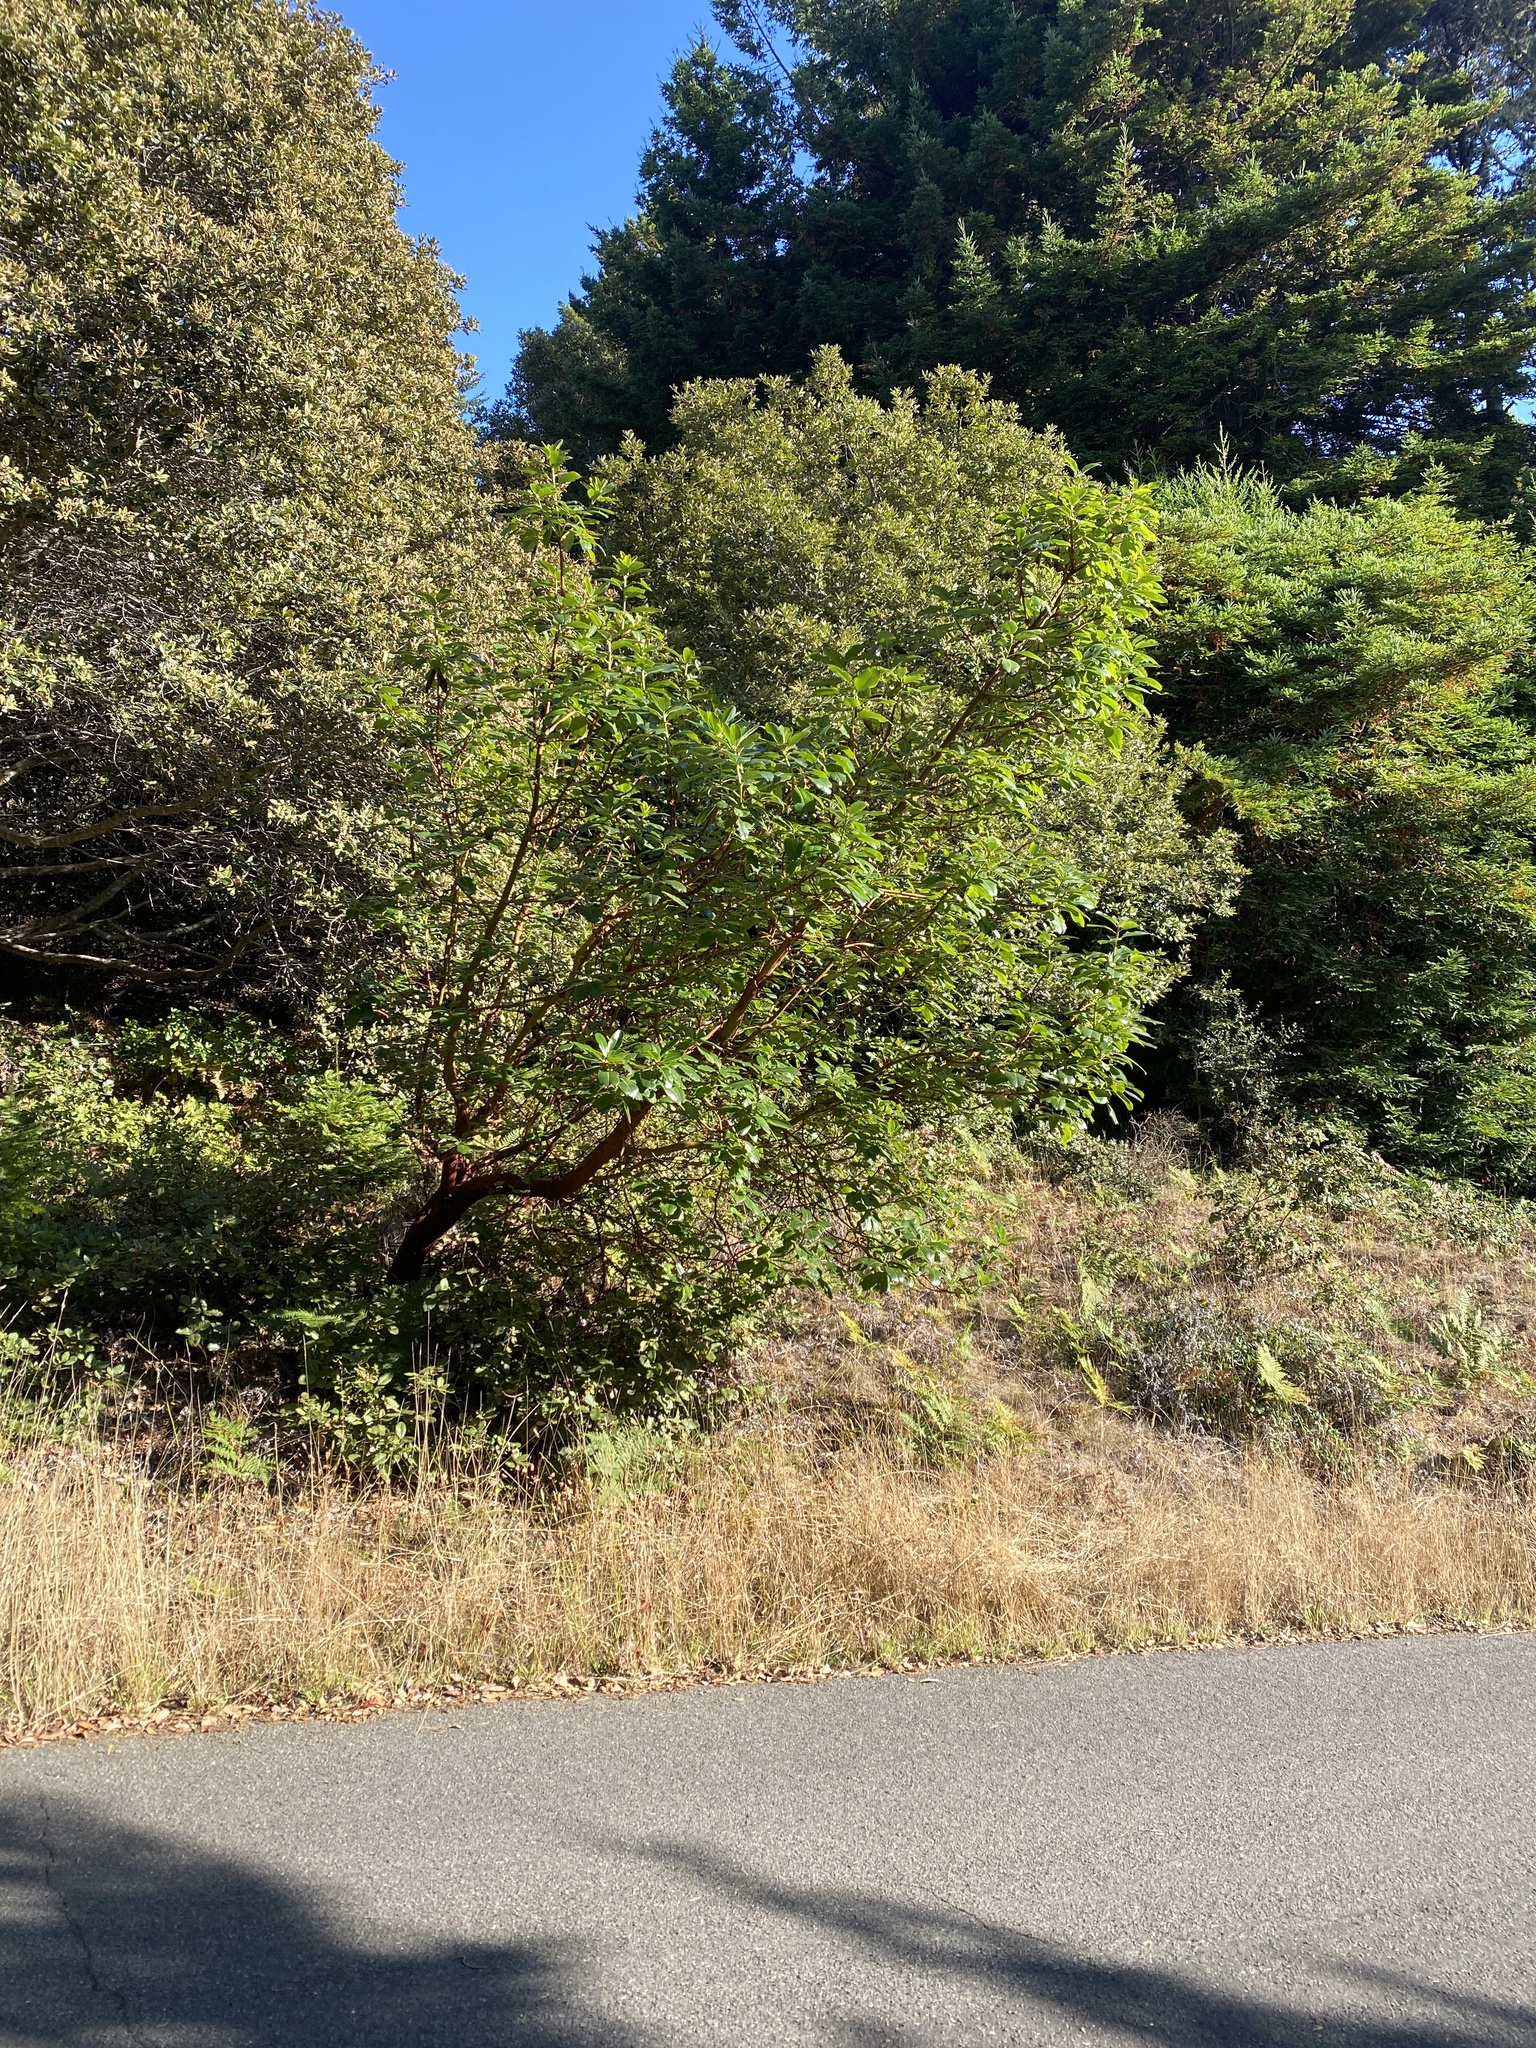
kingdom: Plantae
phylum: Tracheophyta
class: Magnoliopsida
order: Ericales
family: Ericaceae
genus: Arbutus
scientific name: Arbutus menziesii
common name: Pacific madrone
